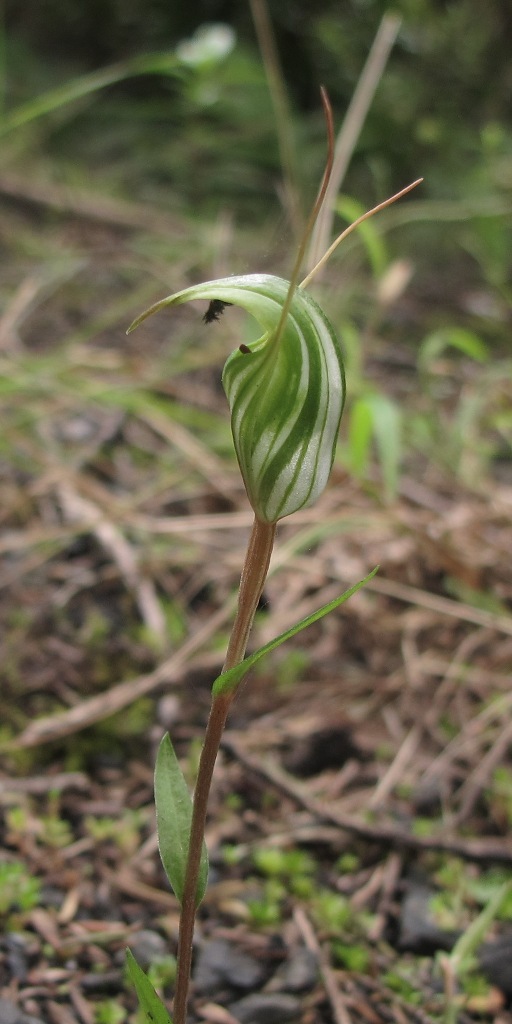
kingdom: Plantae
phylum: Tracheophyta
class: Liliopsida
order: Asparagales
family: Orchidaceae
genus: Pterostylis
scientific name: Pterostylis alobula
